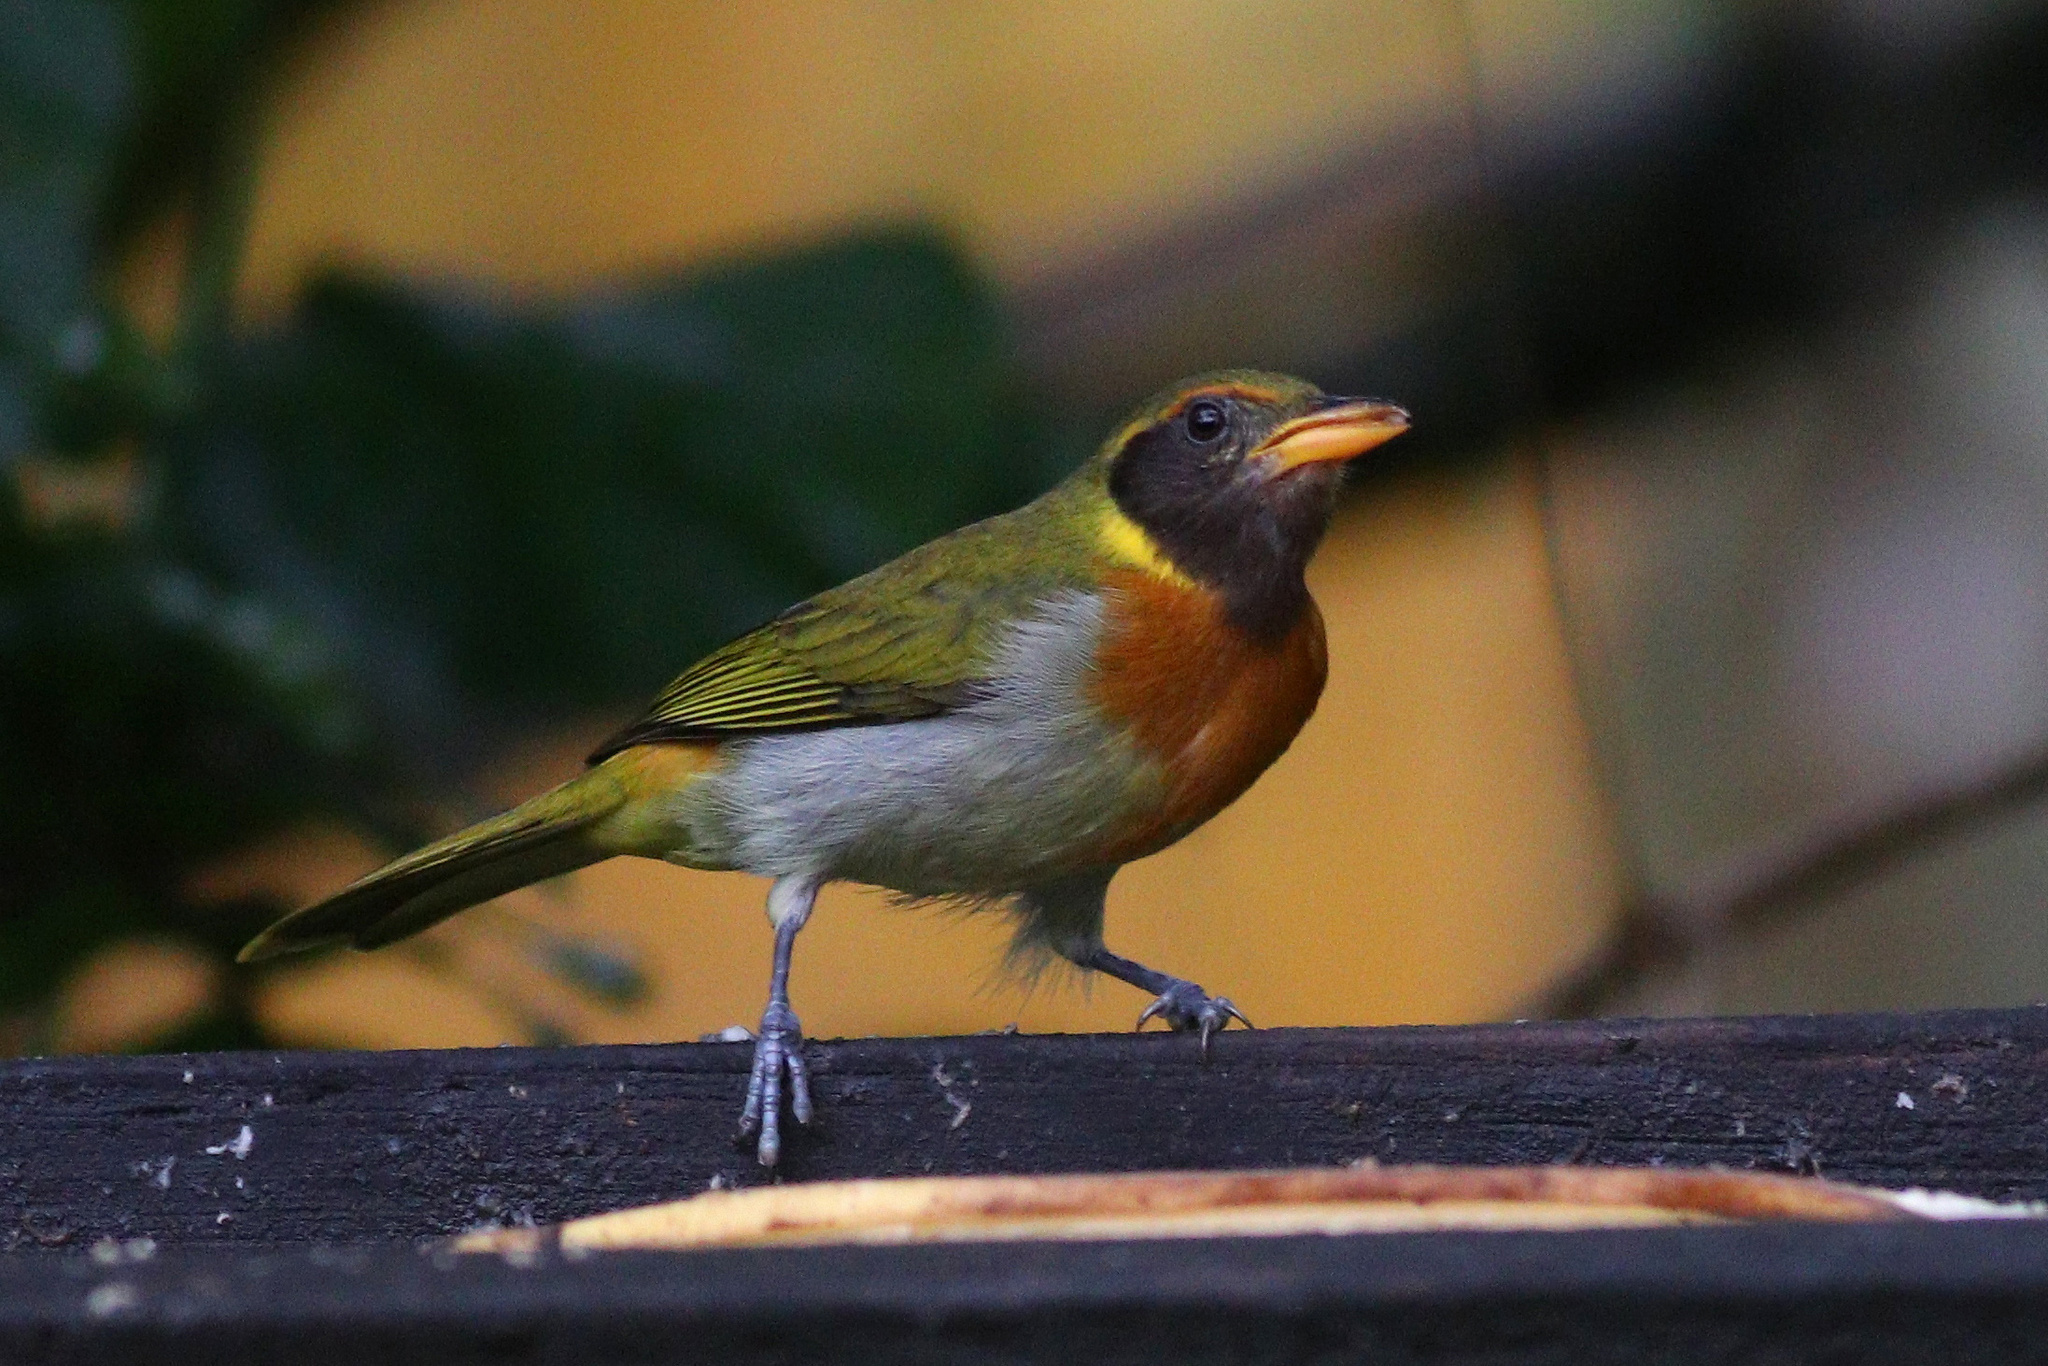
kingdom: Animalia
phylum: Chordata
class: Aves
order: Passeriformes
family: Thraupidae
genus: Hemithraupis
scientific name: Hemithraupis guira
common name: Guira tanager
